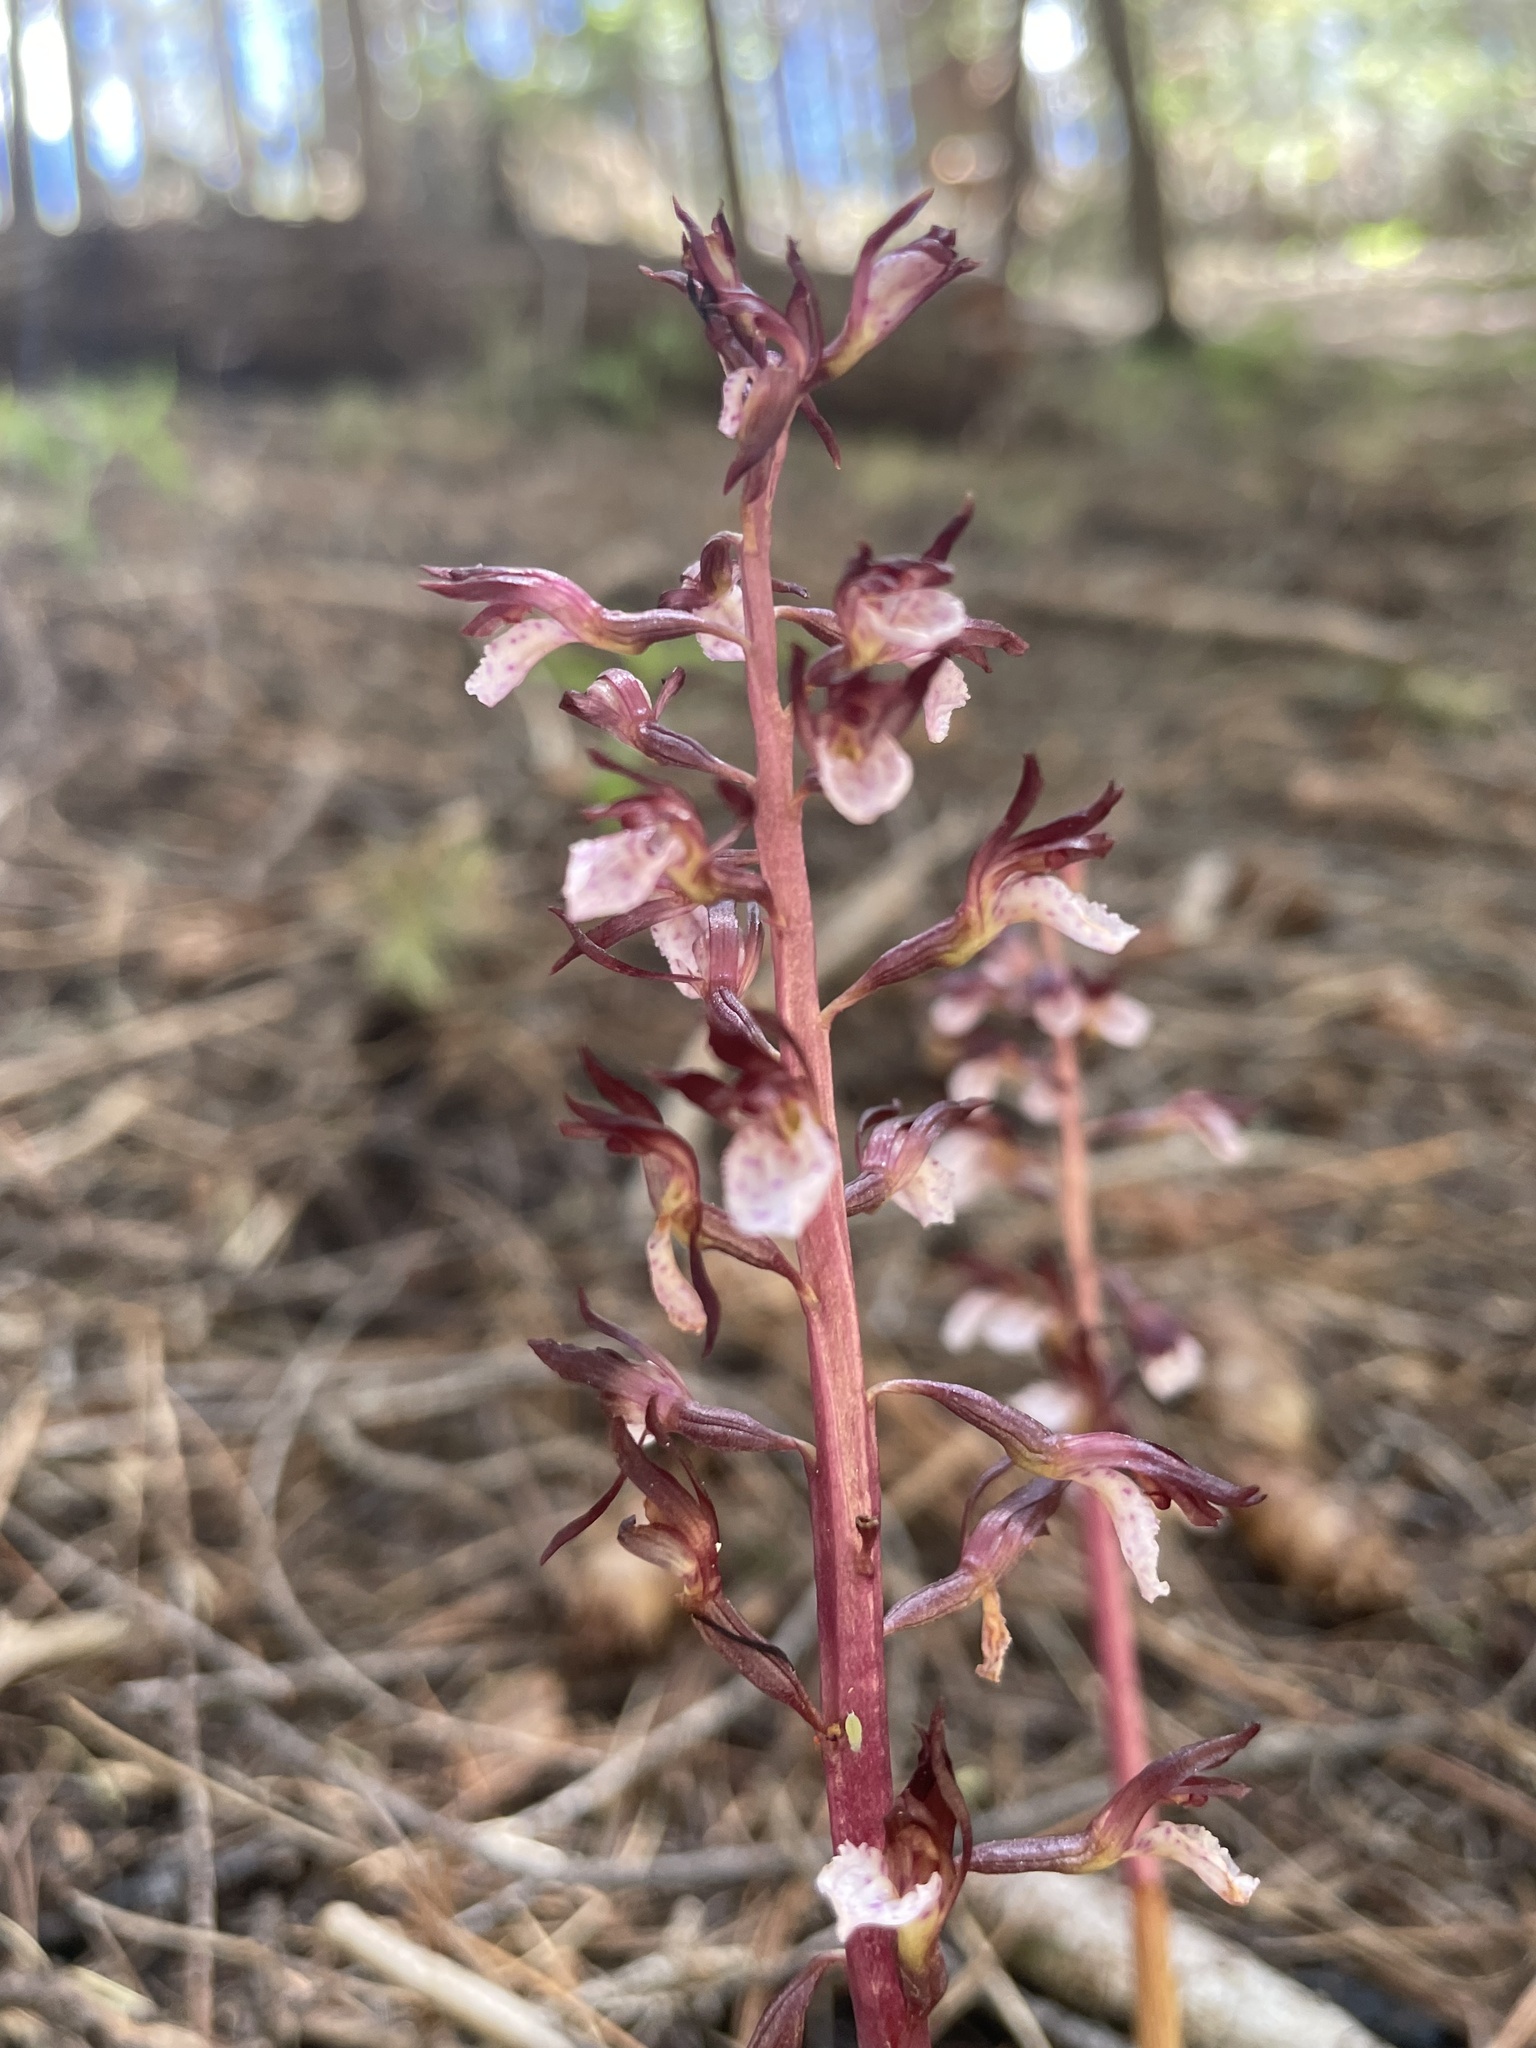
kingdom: Plantae
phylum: Tracheophyta
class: Liliopsida
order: Asparagales
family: Orchidaceae
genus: Corallorhiza
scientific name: Corallorhiza wisteriana
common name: Spring coralroot
